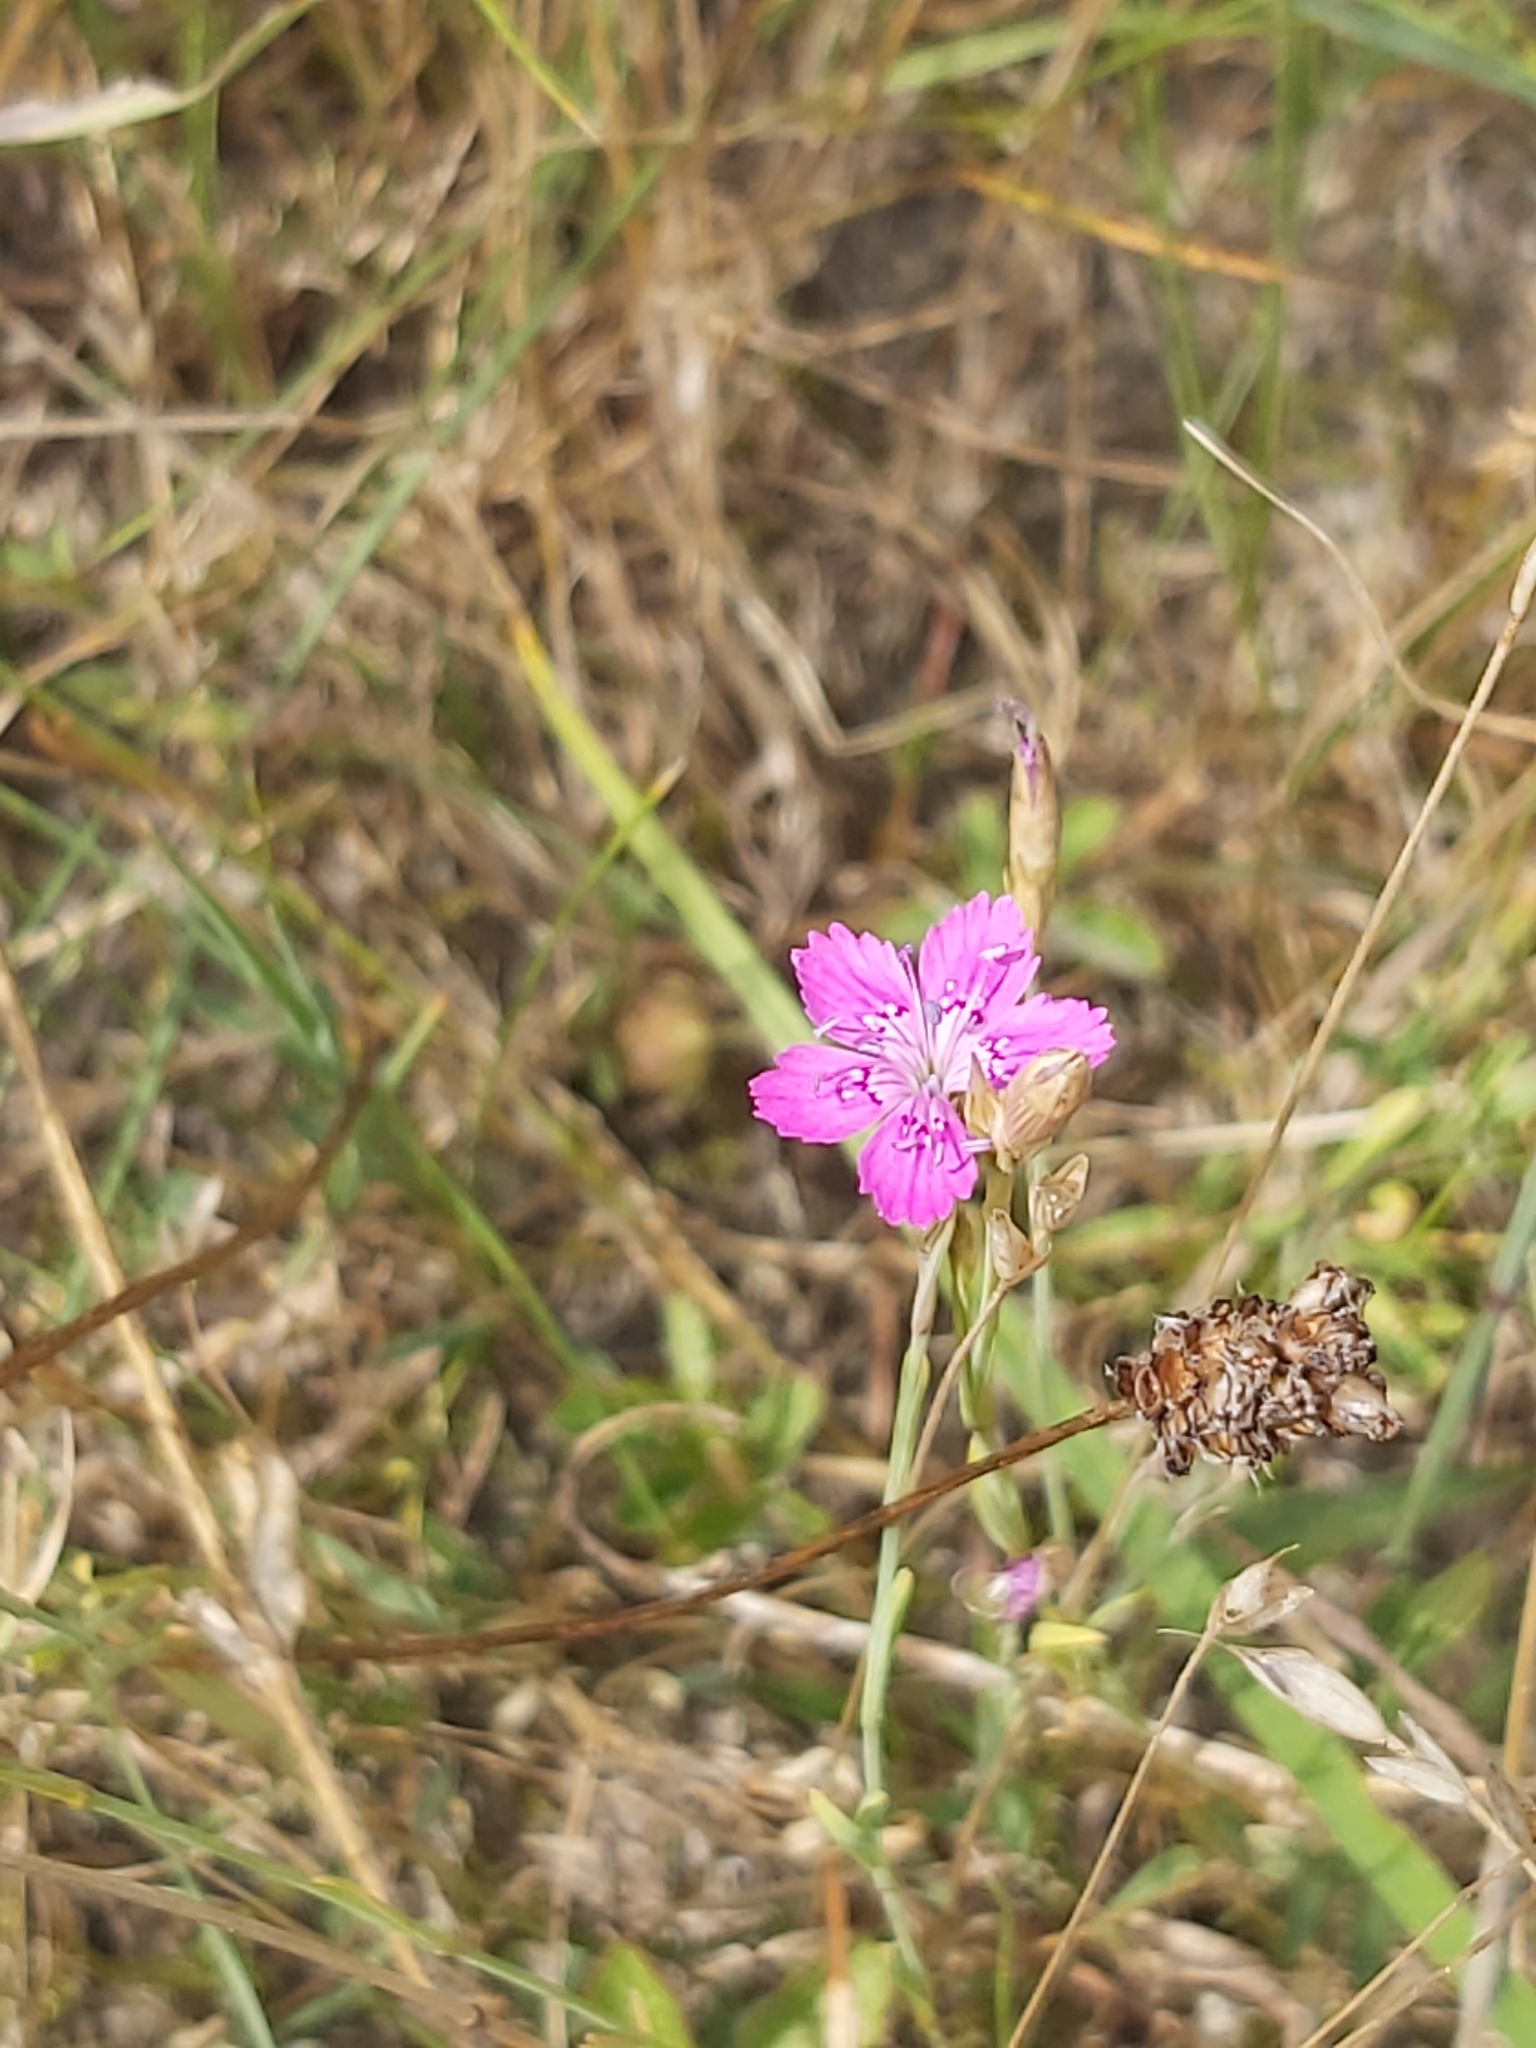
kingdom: Plantae
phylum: Tracheophyta
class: Magnoliopsida
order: Caryophyllales
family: Caryophyllaceae
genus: Dianthus
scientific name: Dianthus deltoides
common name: Maiden pink
